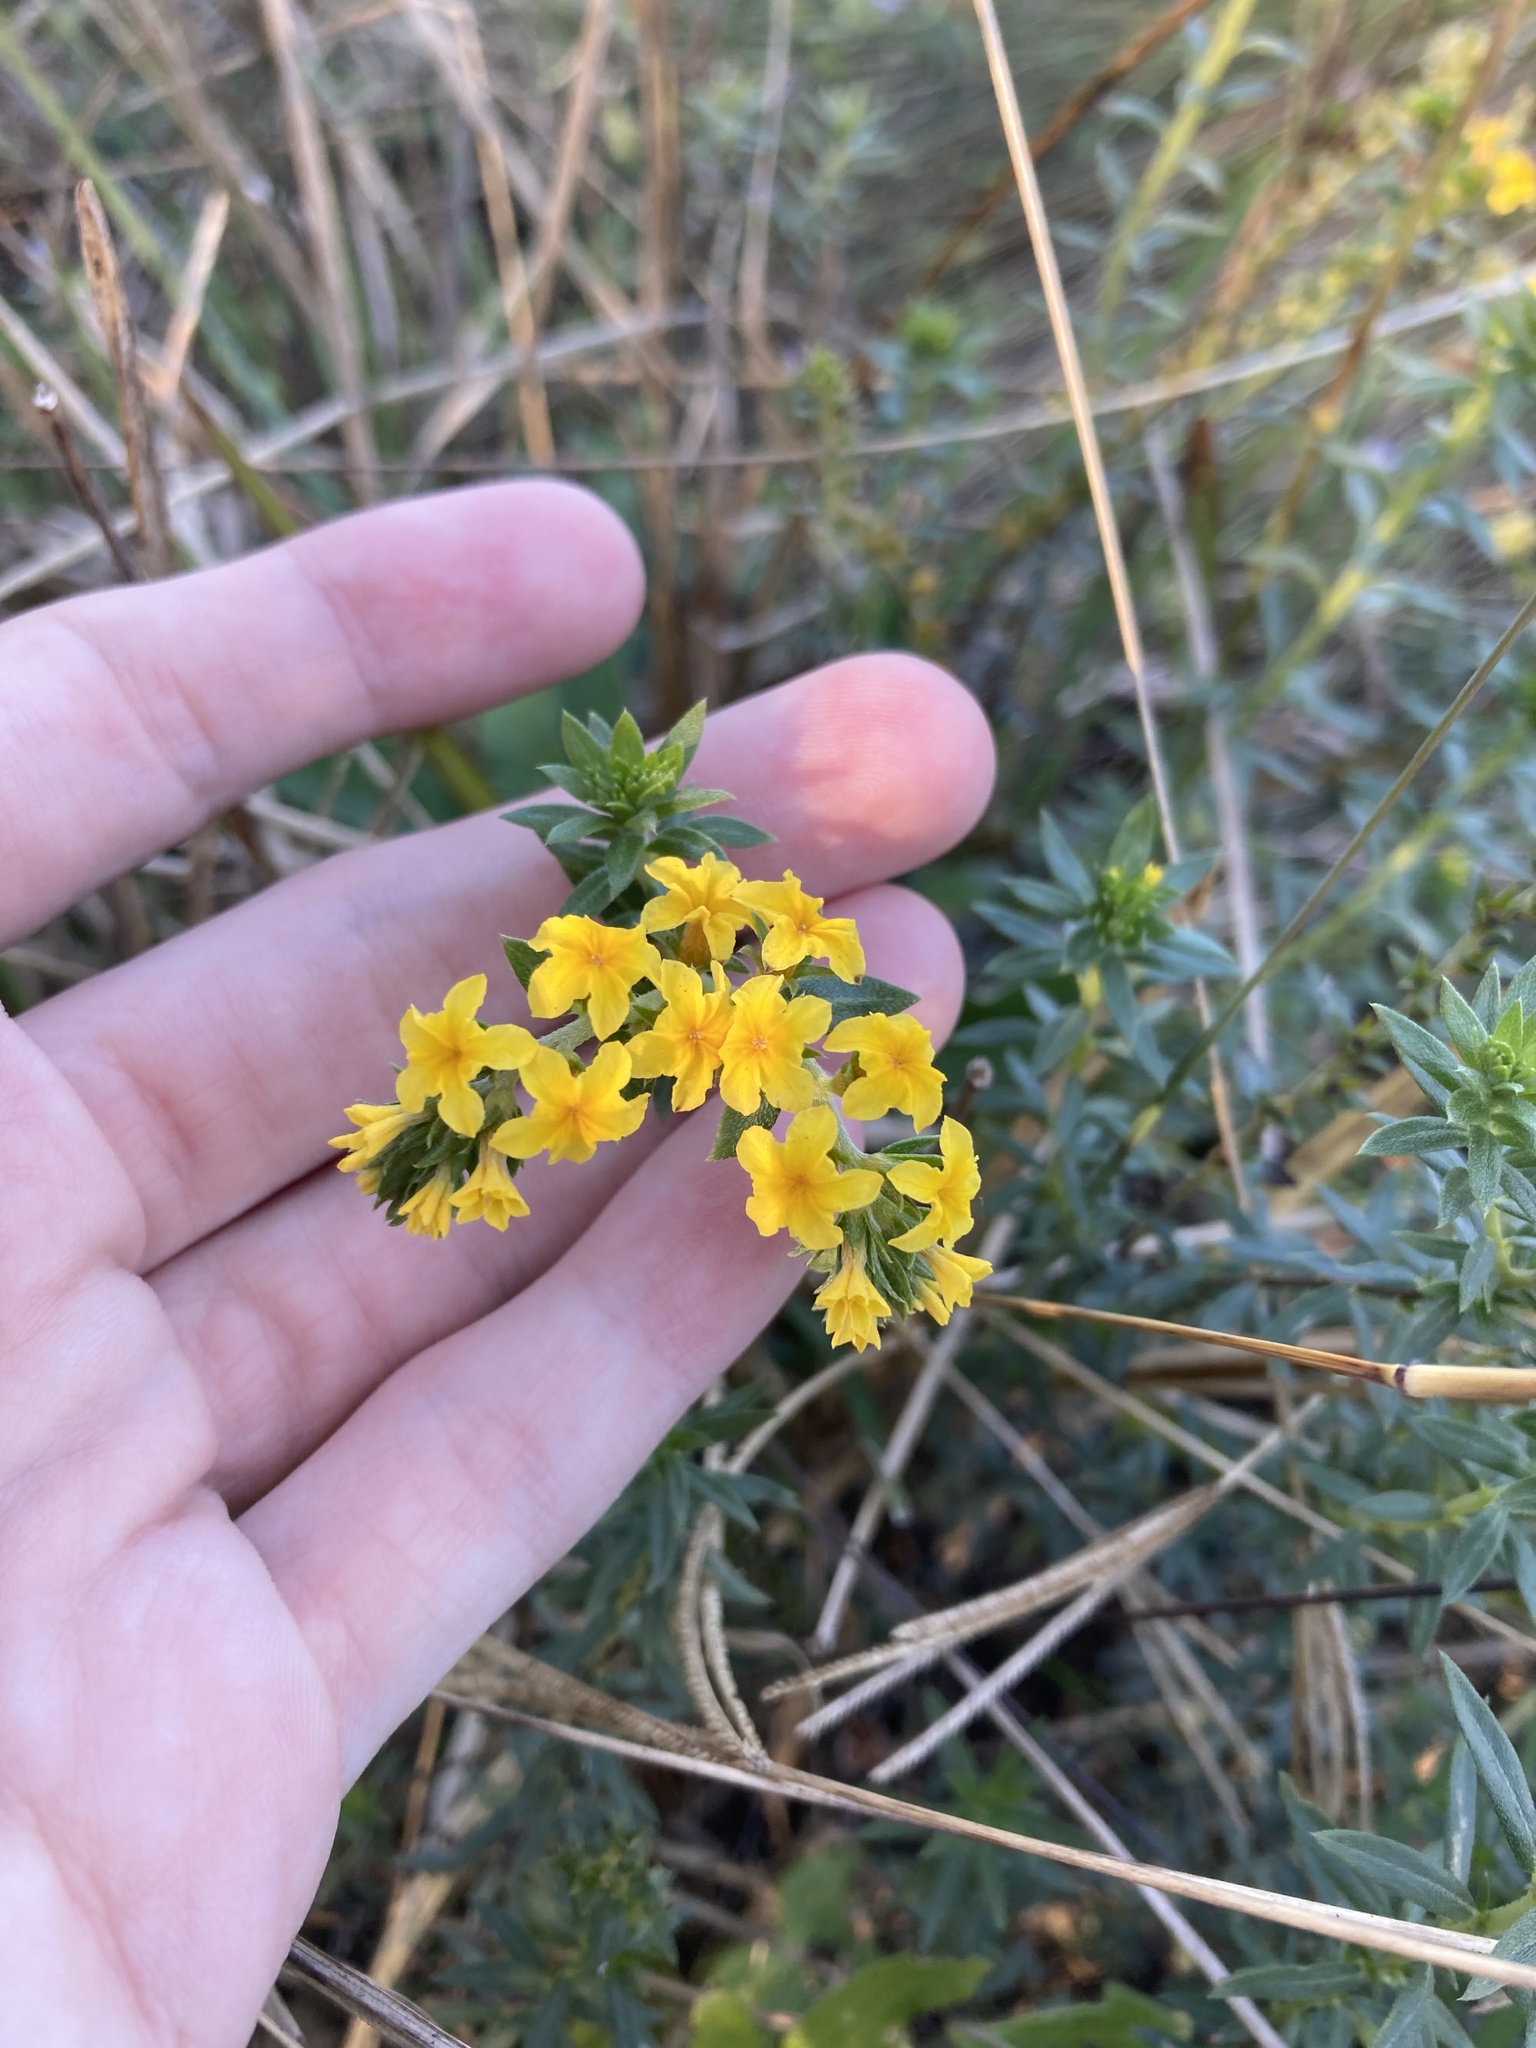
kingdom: Plantae
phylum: Tracheophyta
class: Magnoliopsida
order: Boraginales
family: Heliotropiaceae
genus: Euploca
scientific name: Euploca polyphylla
